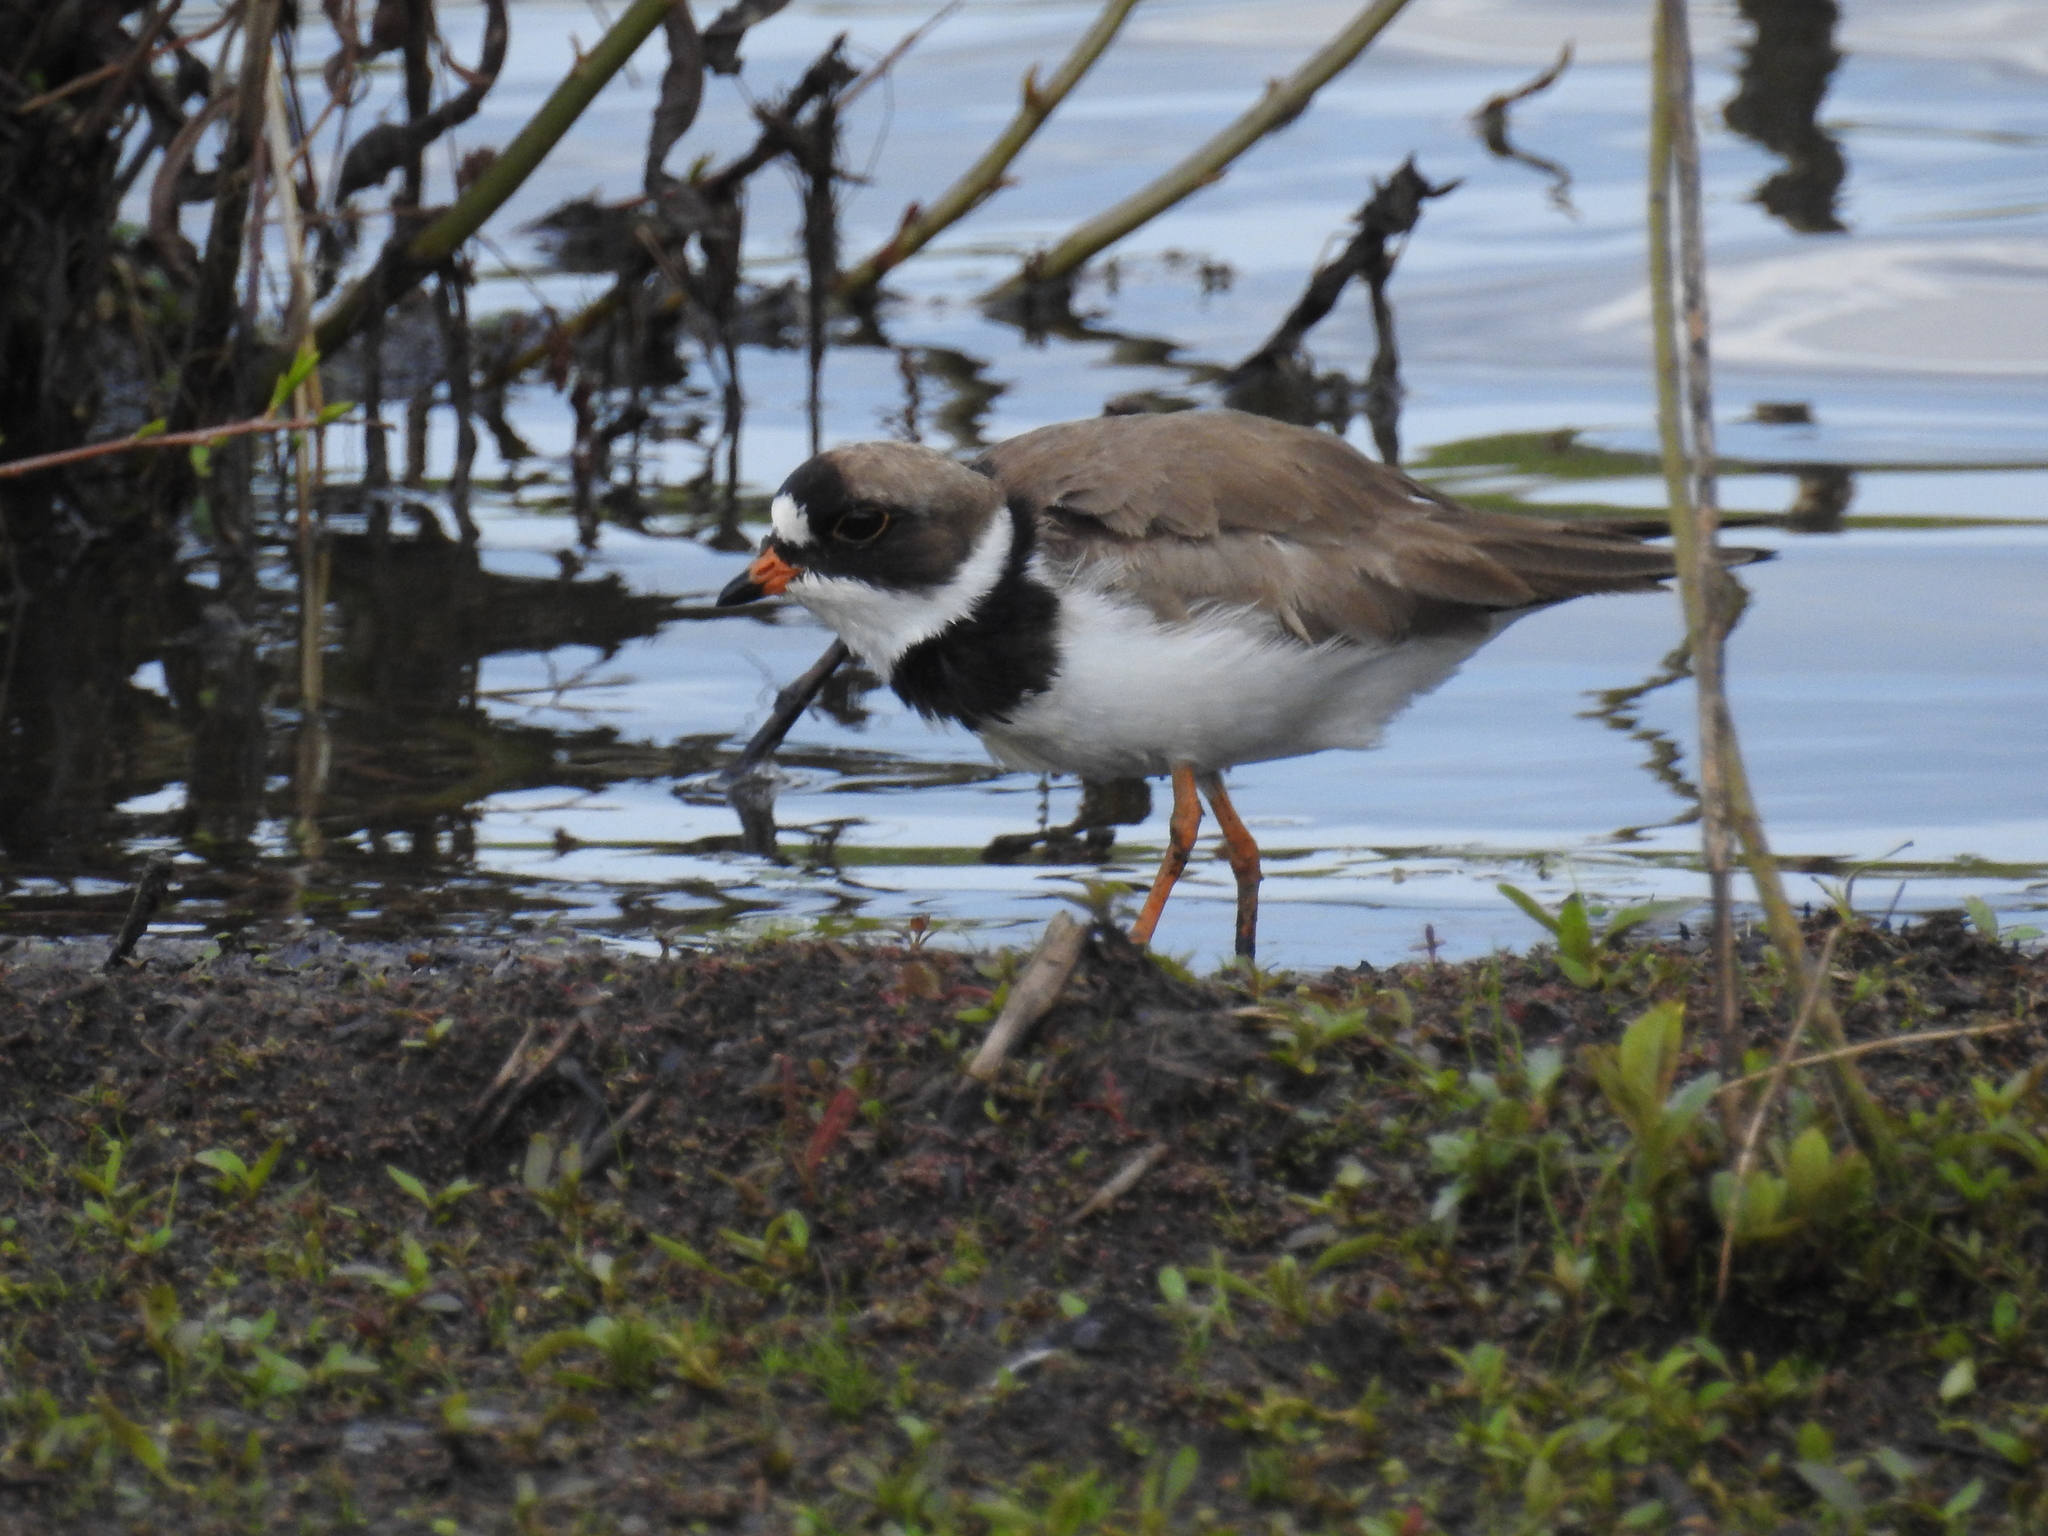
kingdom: Animalia
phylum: Chordata
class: Aves
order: Charadriiformes
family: Charadriidae
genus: Charadrius
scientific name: Charadrius semipalmatus
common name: Semipalmated plover
